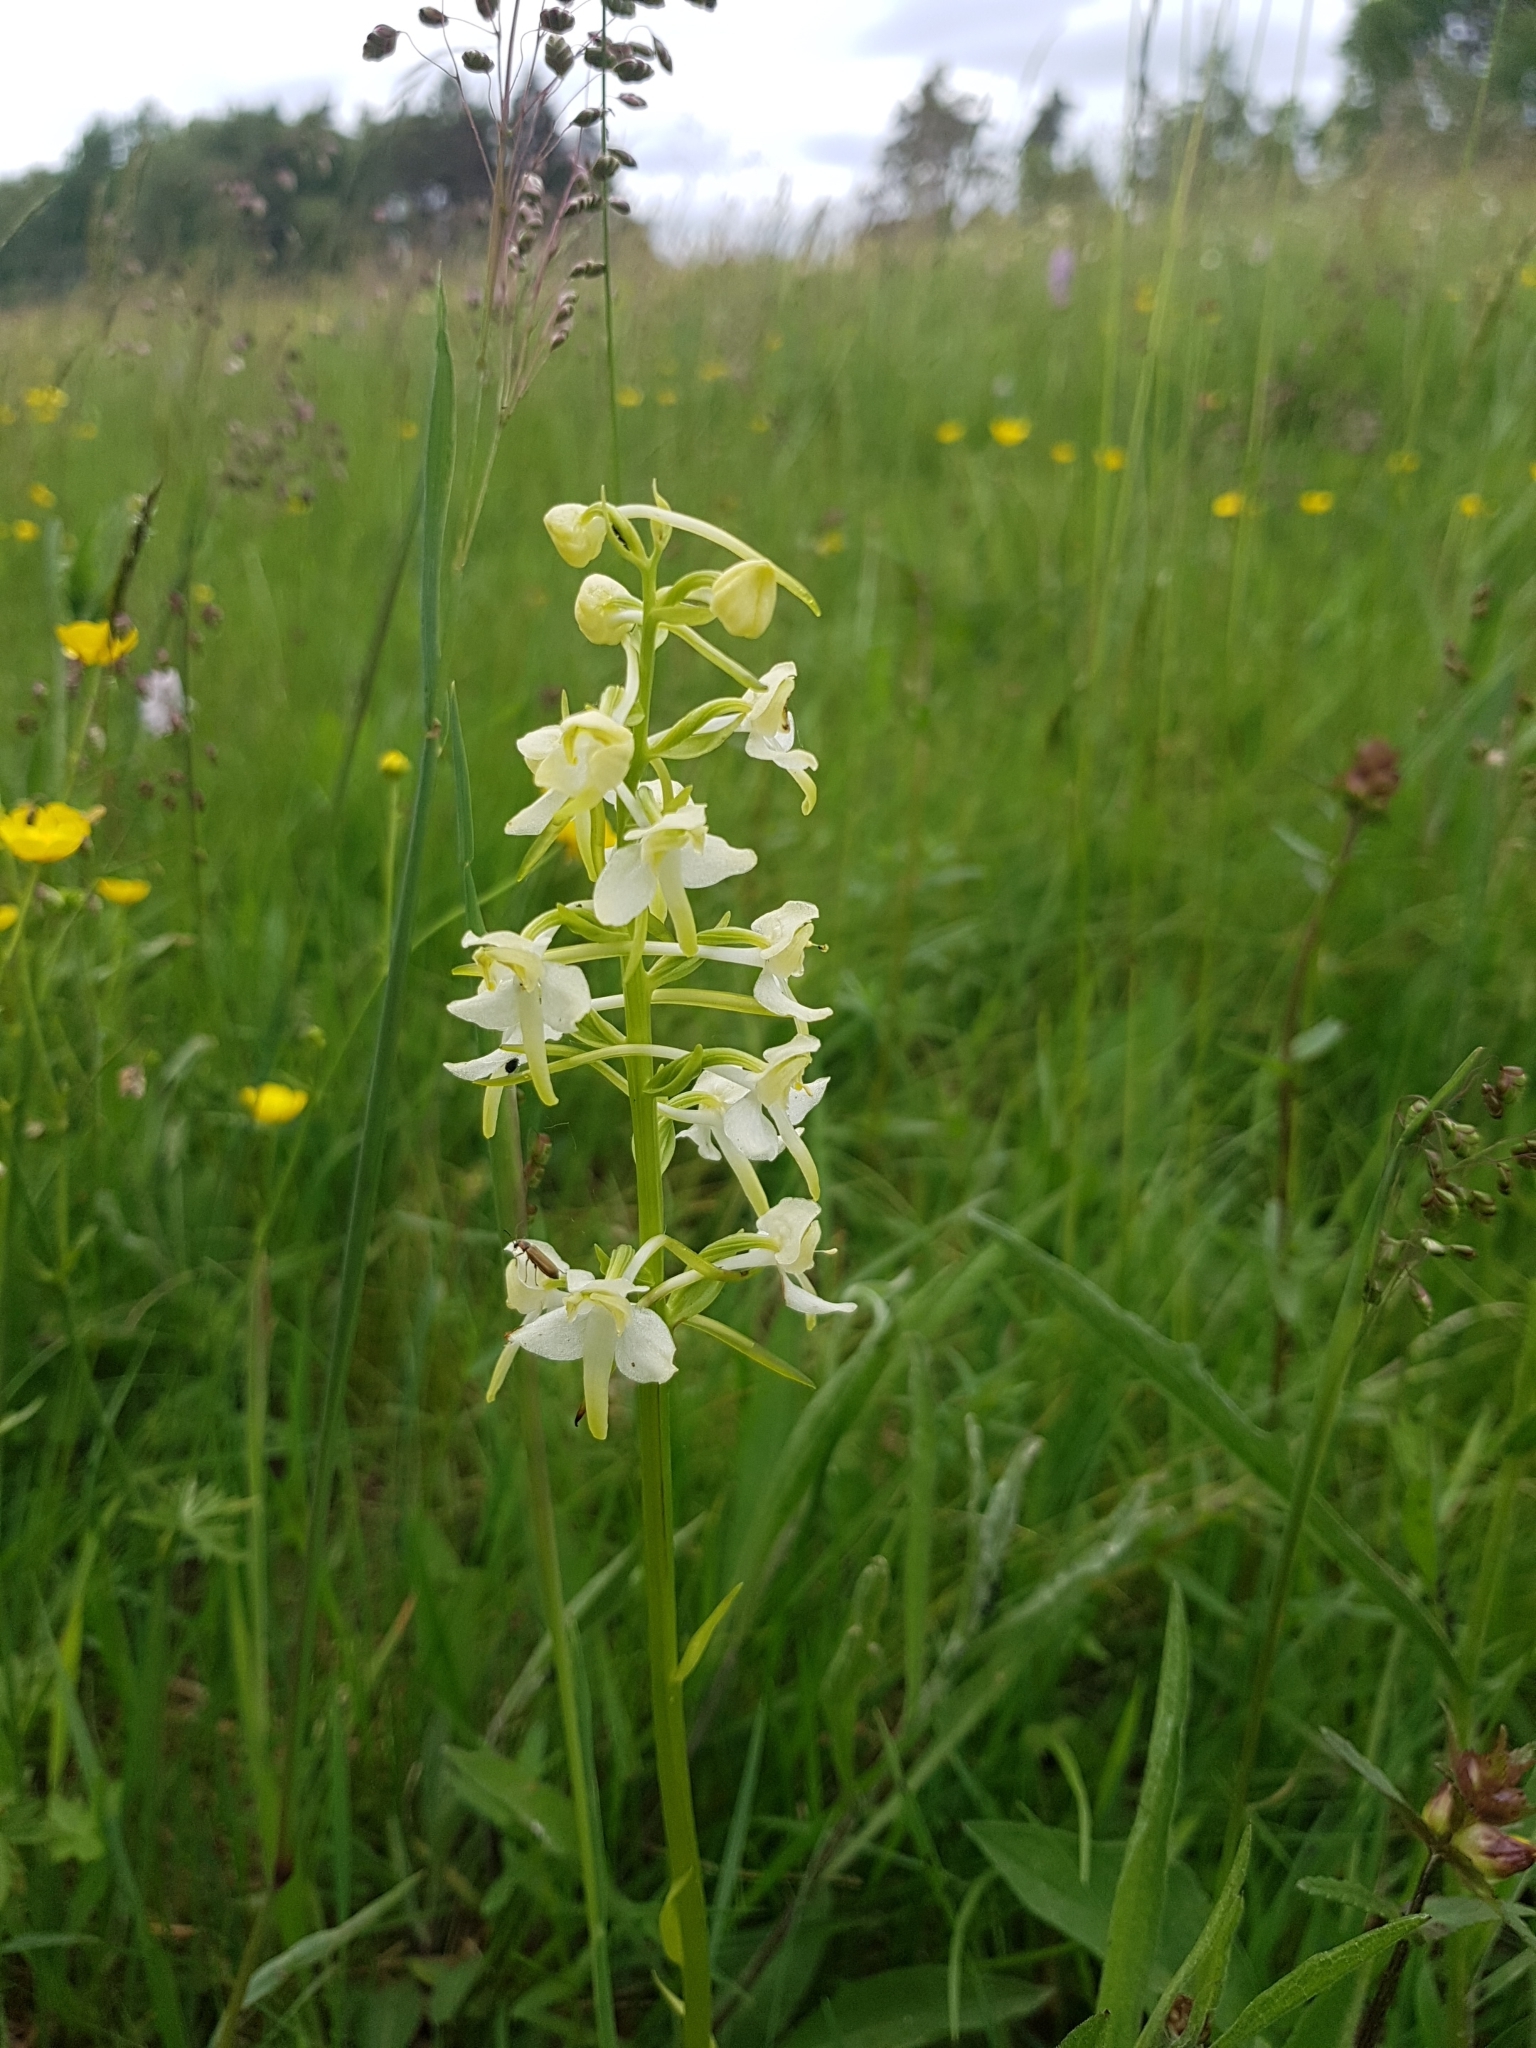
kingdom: Plantae
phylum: Tracheophyta
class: Liliopsida
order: Asparagales
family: Orchidaceae
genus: Platanthera
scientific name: Platanthera chlorantha
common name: Greater butterfly-orchid
